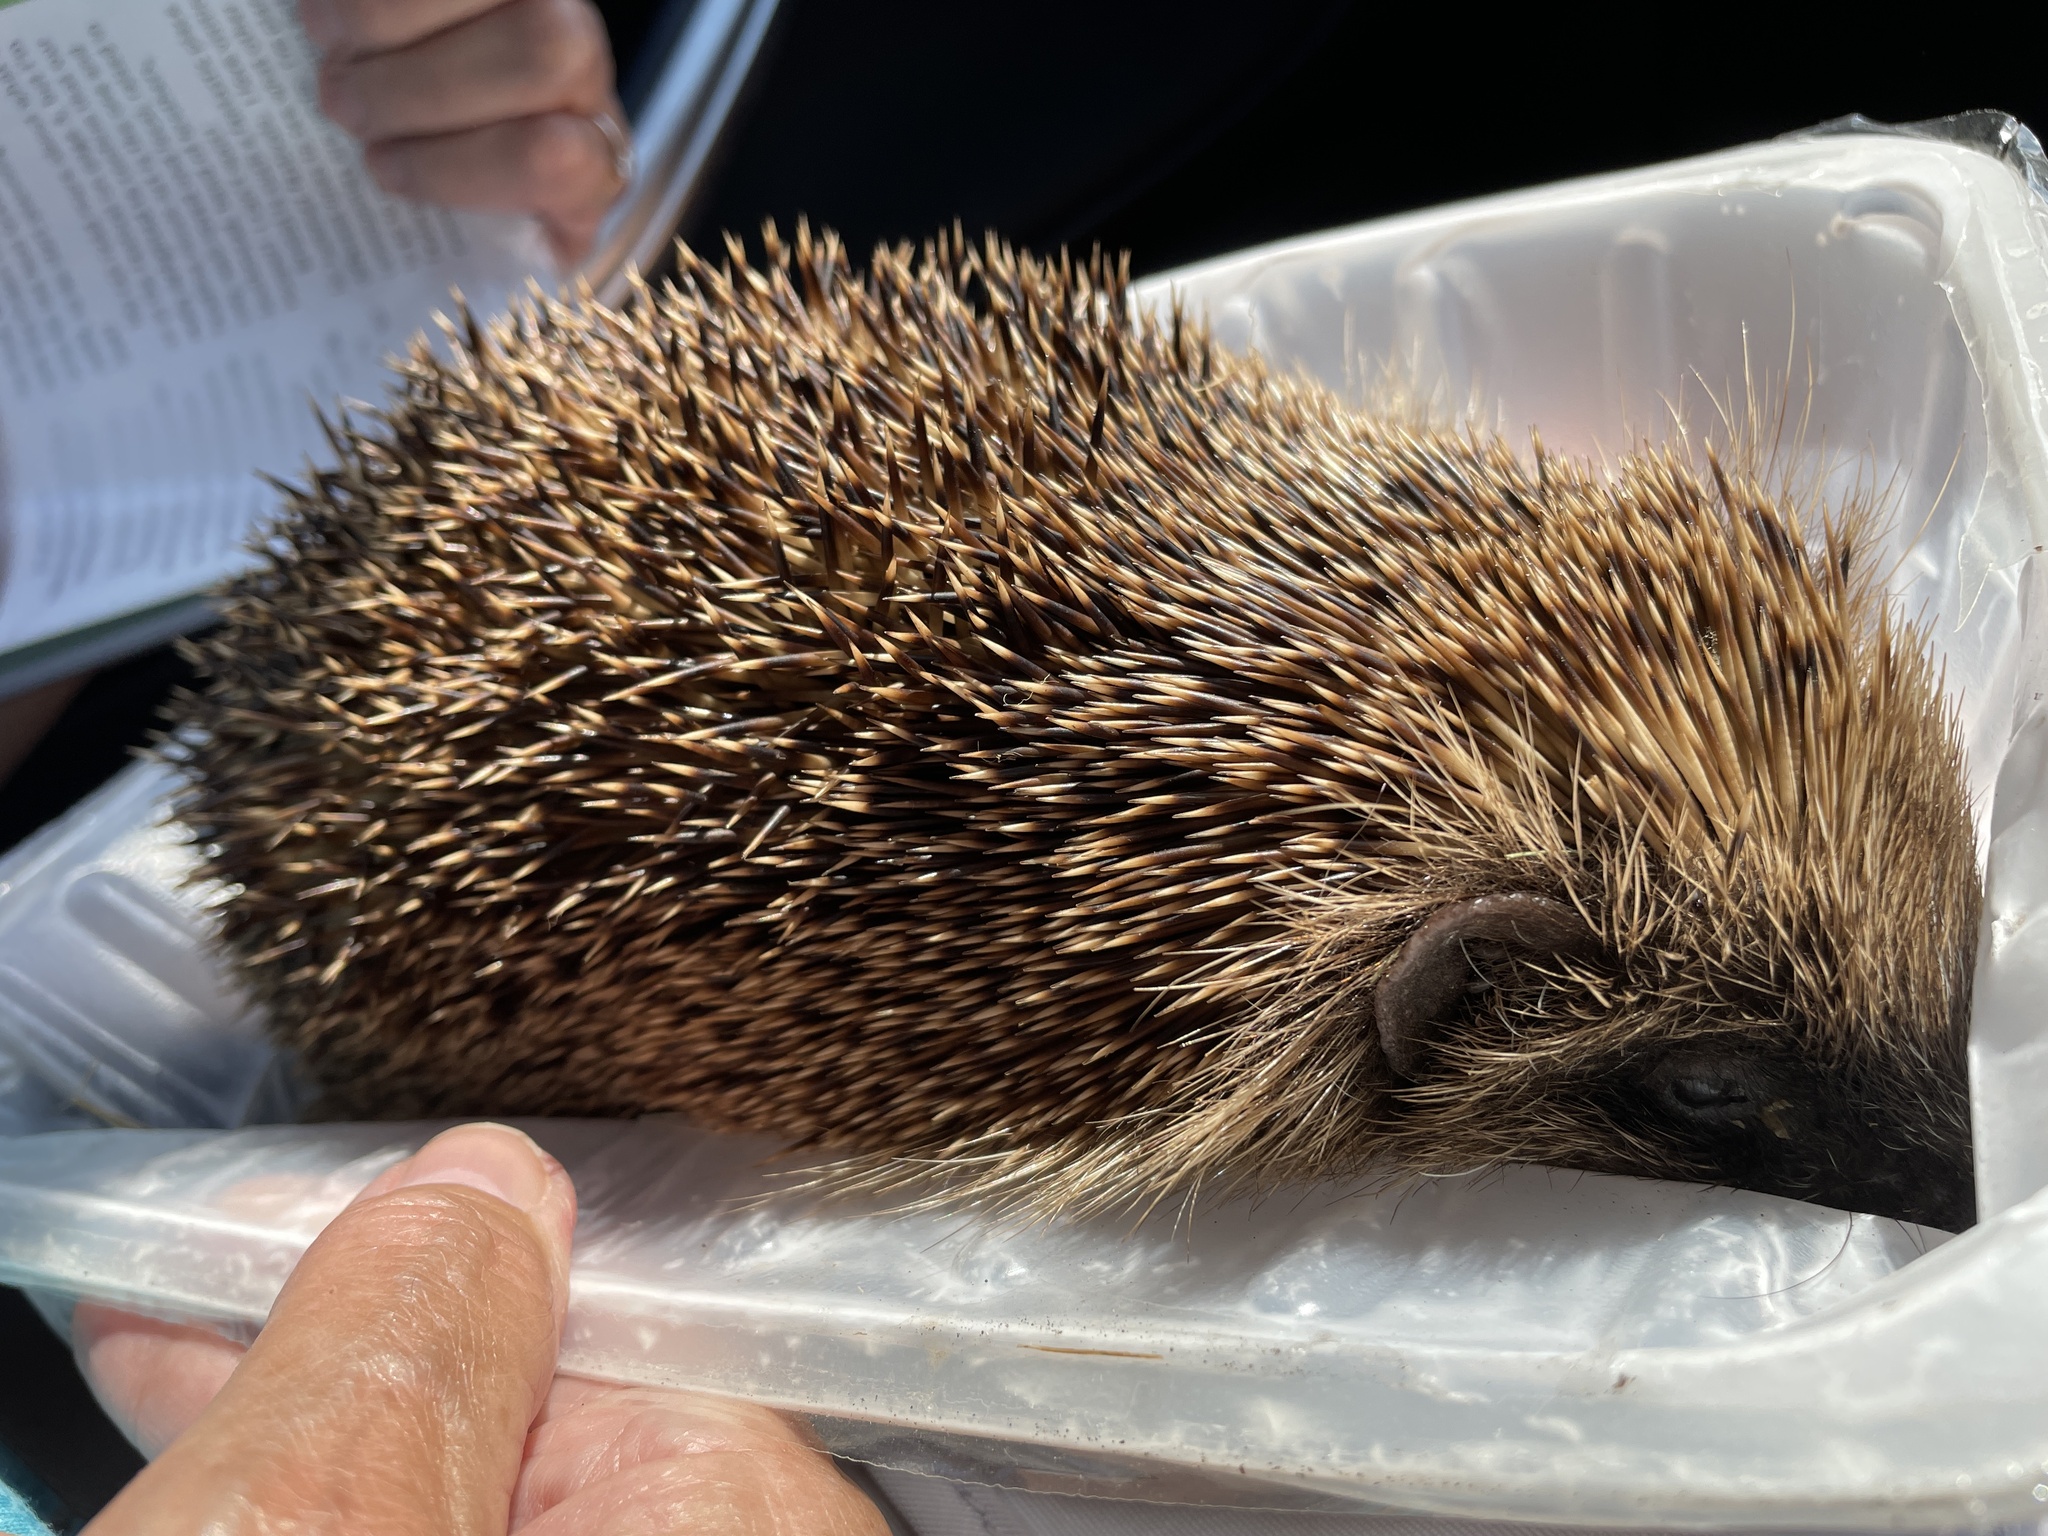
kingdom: Animalia
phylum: Chordata
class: Mammalia
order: Erinaceomorpha
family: Erinaceidae
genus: Erinaceus
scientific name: Erinaceus europaeus
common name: West european hedgehog
